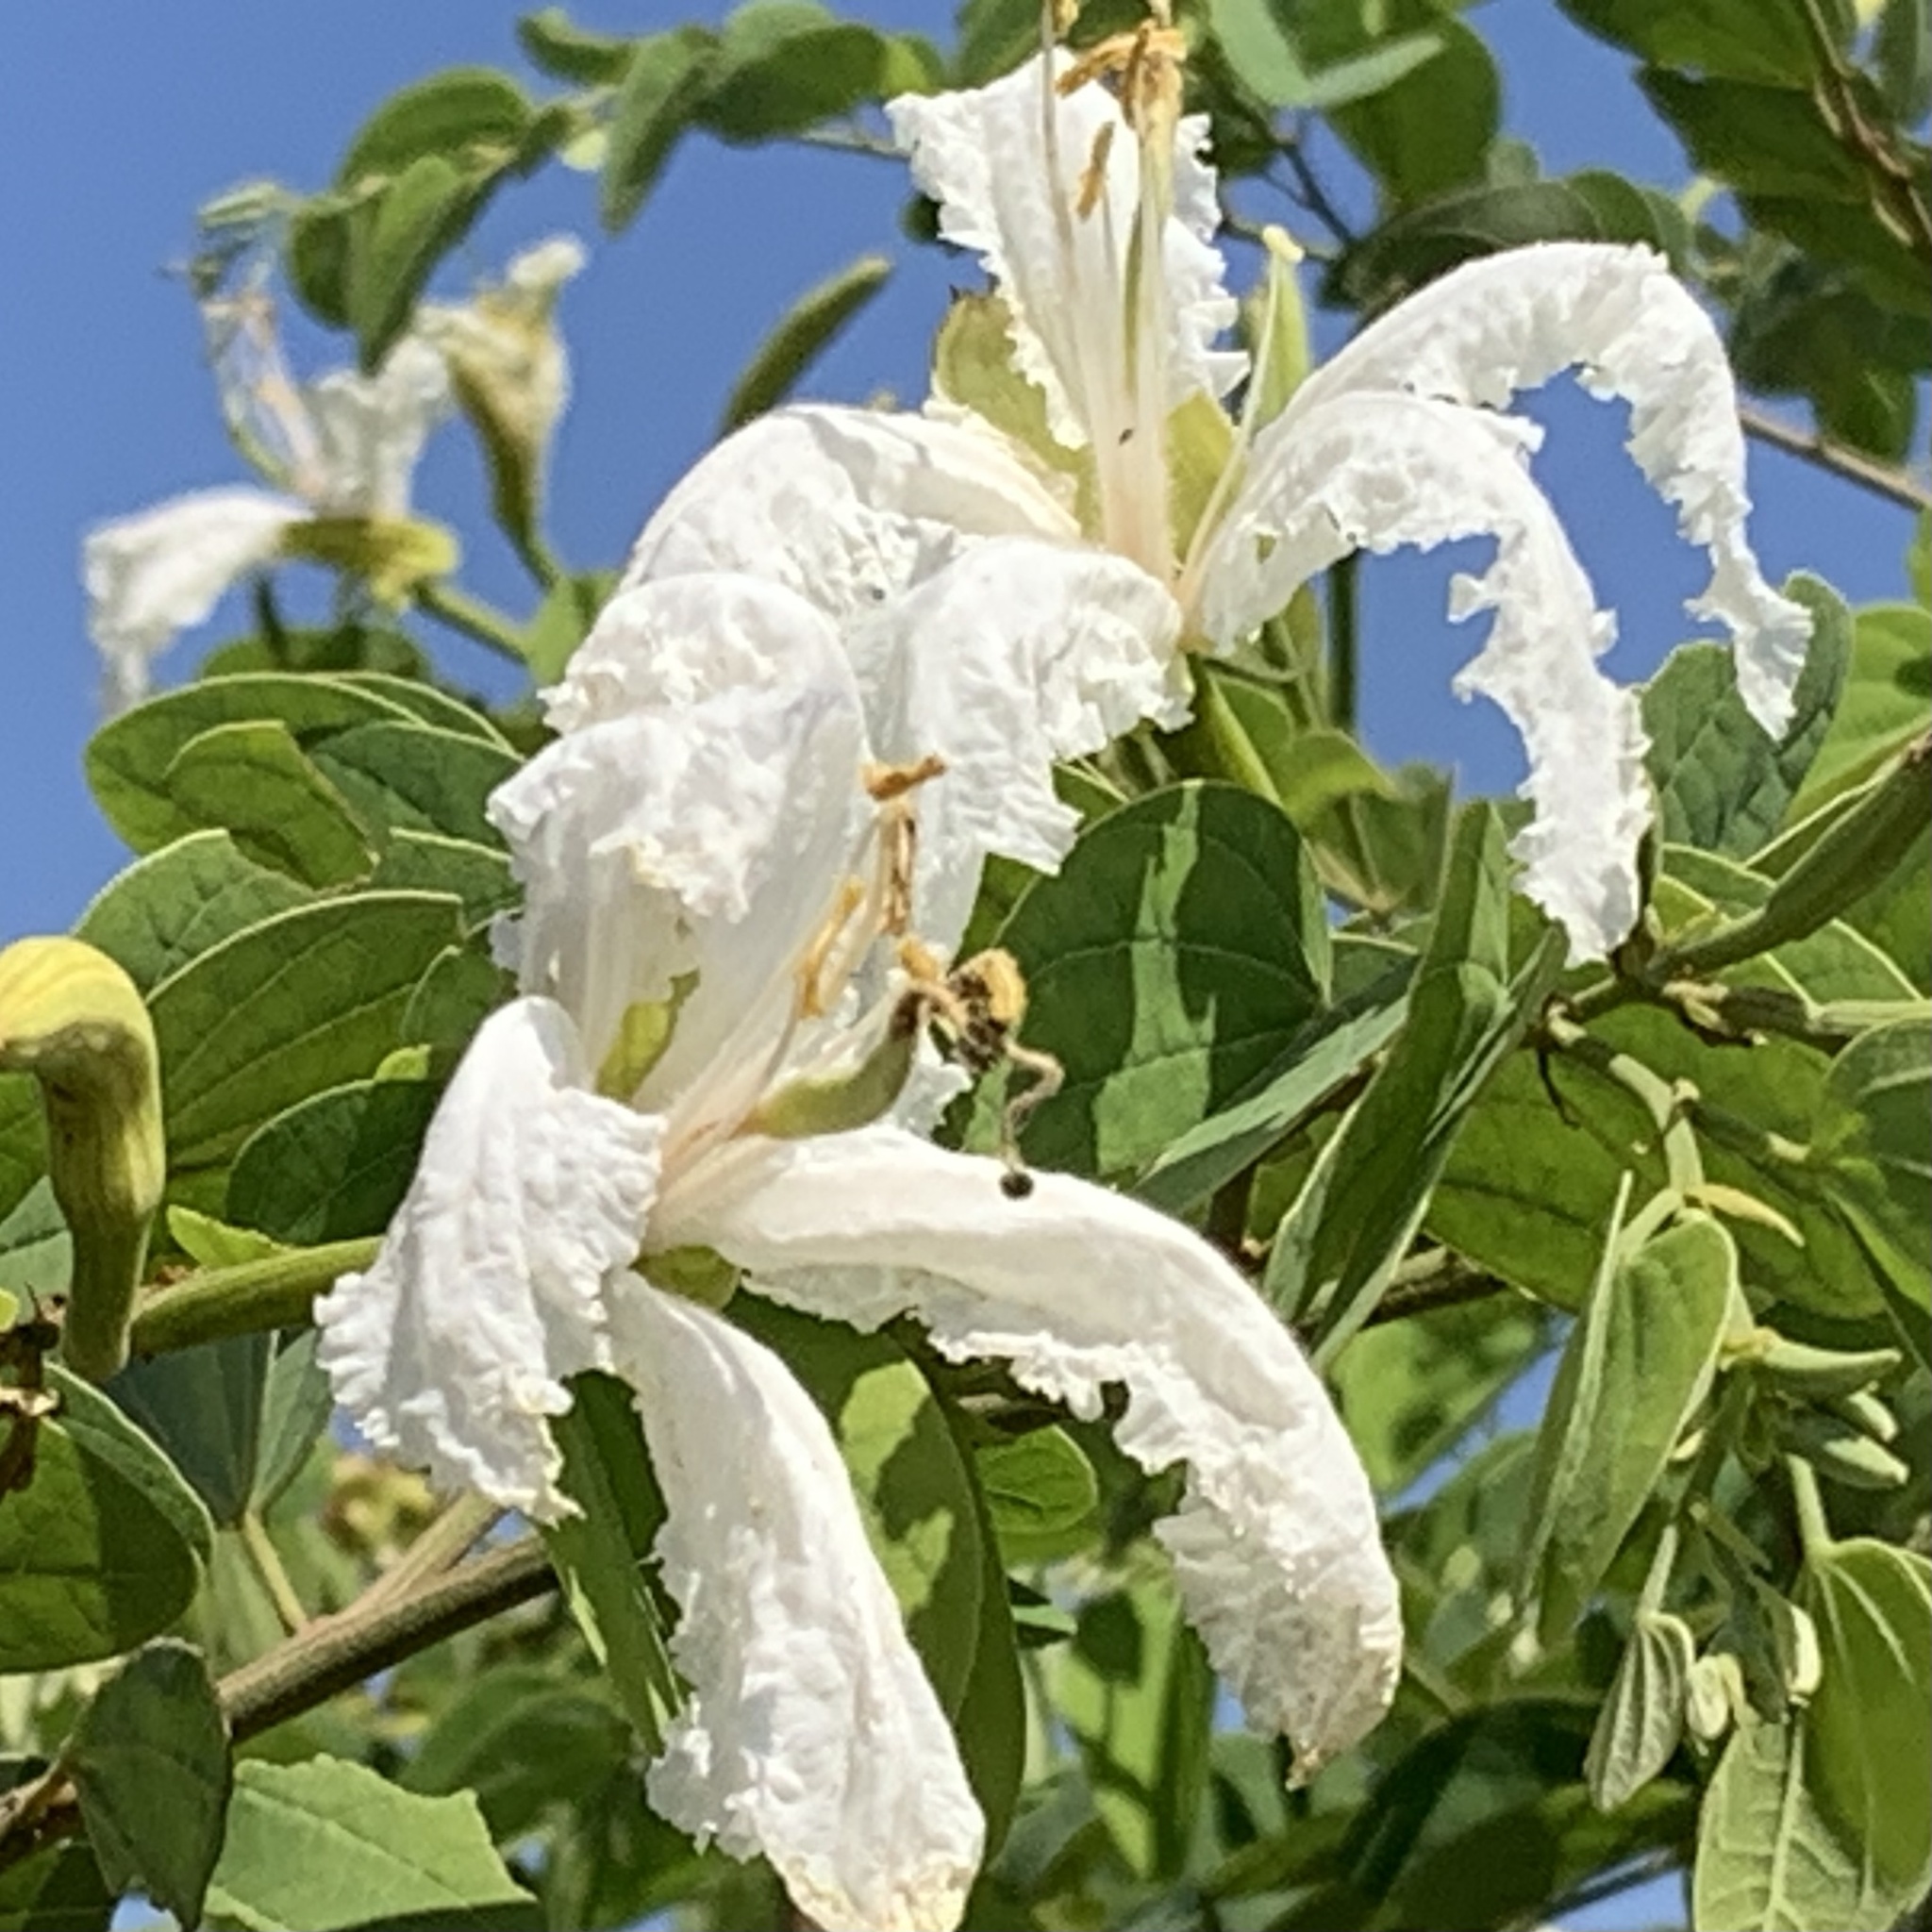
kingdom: Plantae
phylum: Tracheophyta
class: Magnoliopsida
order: Fabales
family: Fabaceae
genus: Bauhinia
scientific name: Bauhinia petersiana
